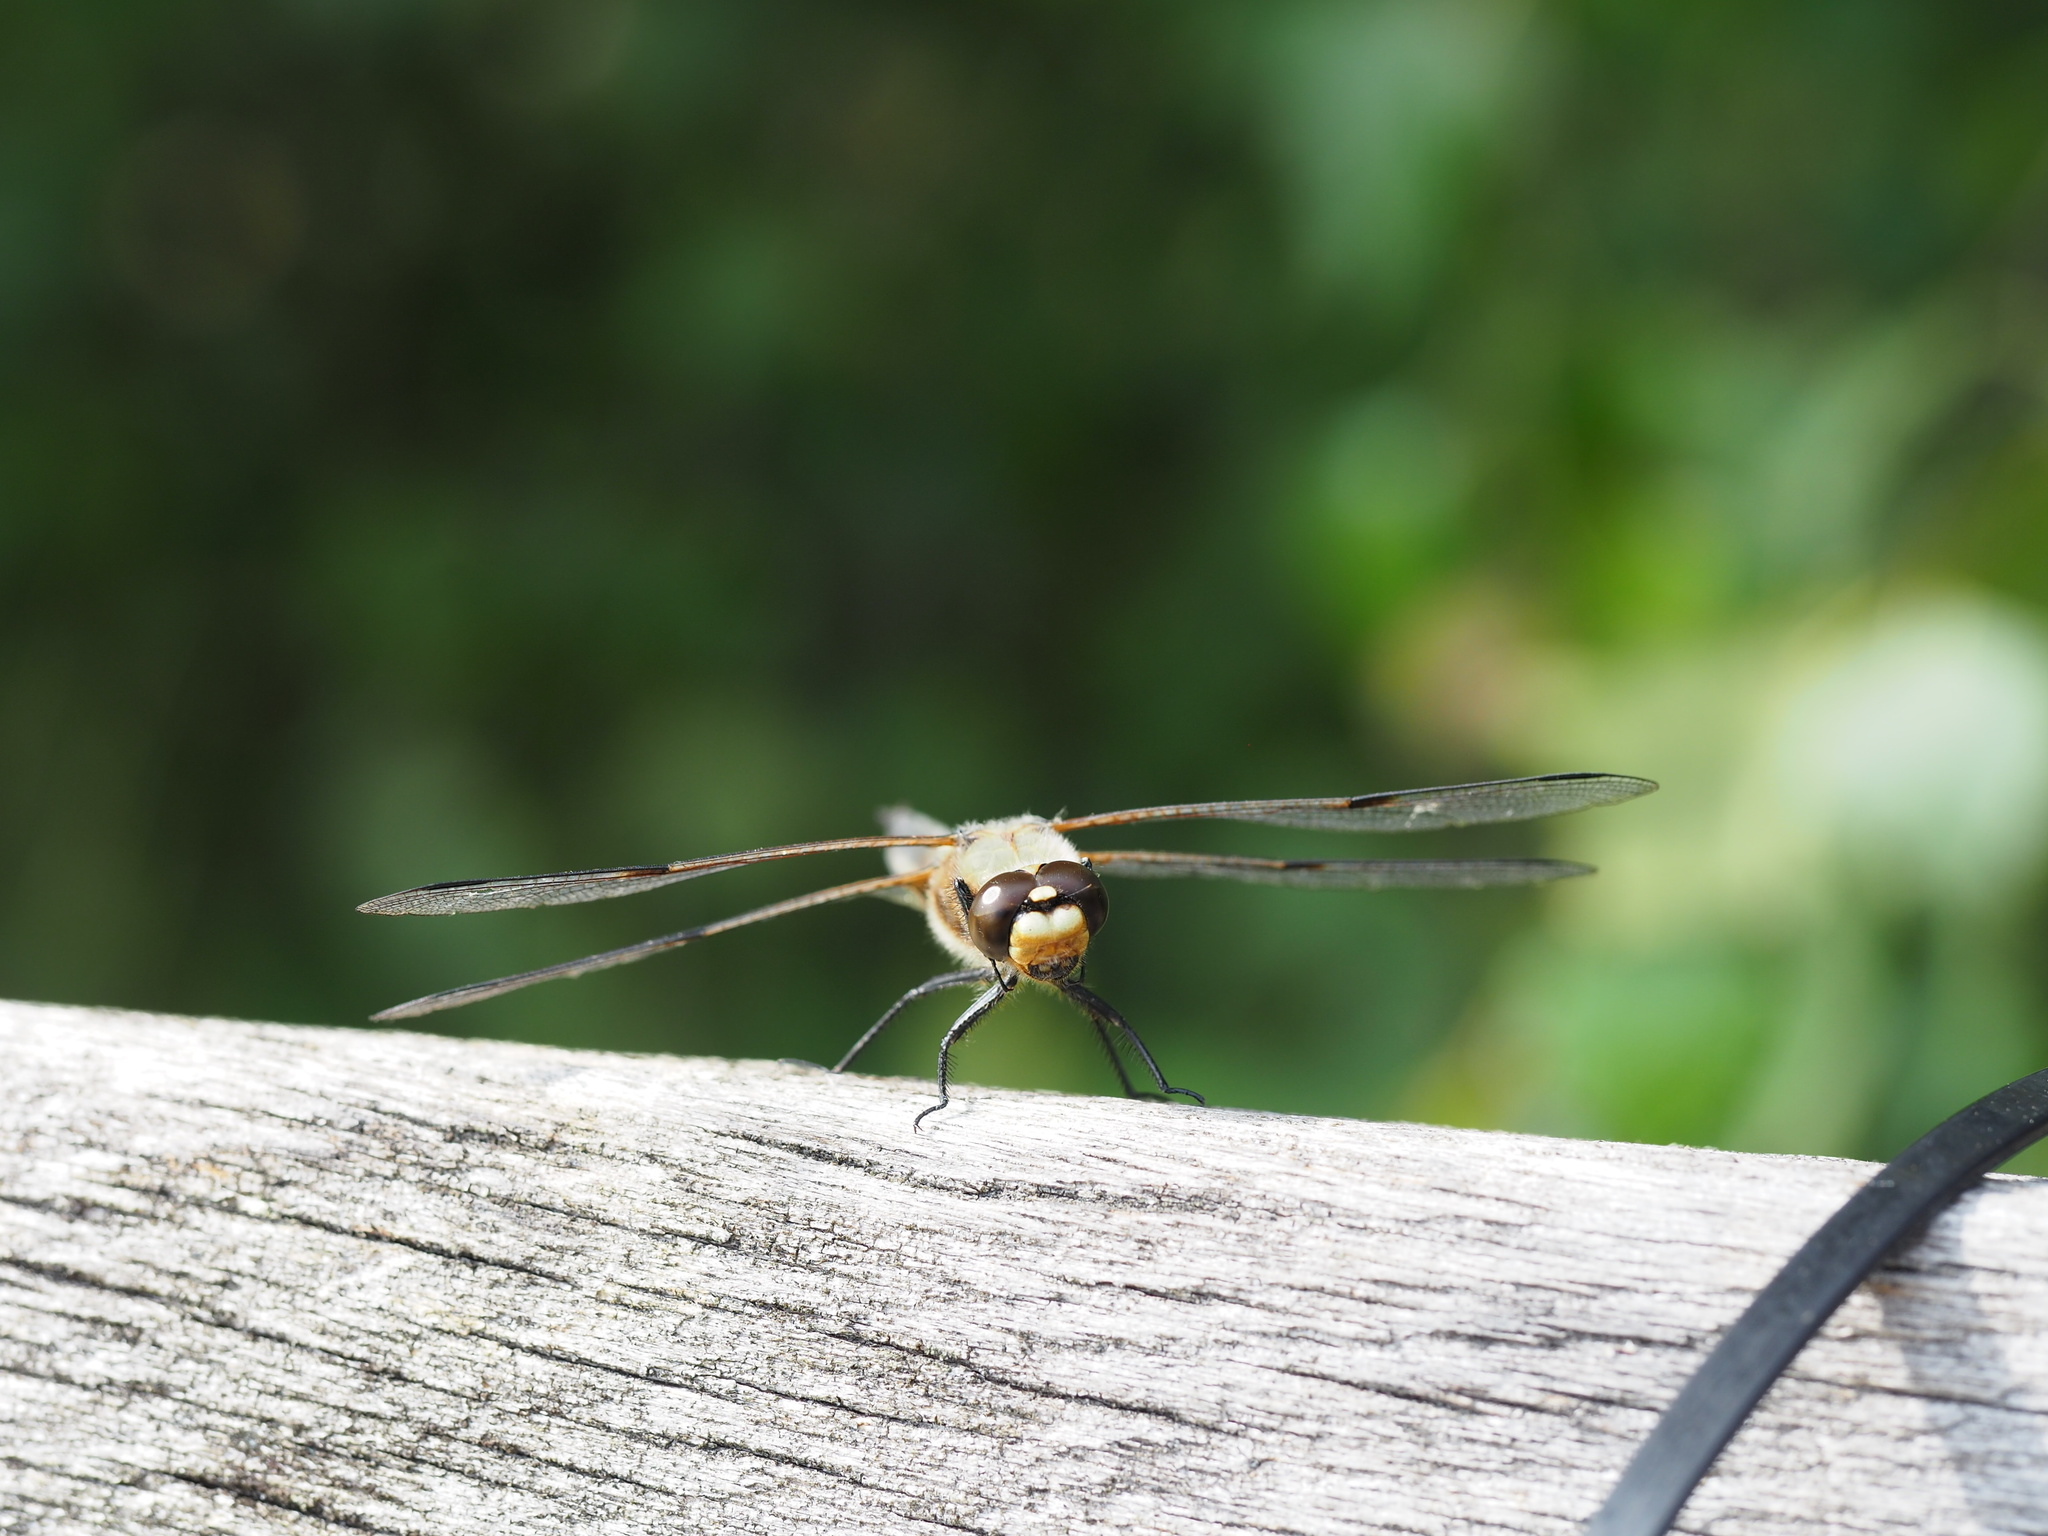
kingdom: Animalia
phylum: Arthropoda
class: Insecta
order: Odonata
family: Libellulidae
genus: Libellula
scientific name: Libellula quadrimaculata
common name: Four-spotted chaser
